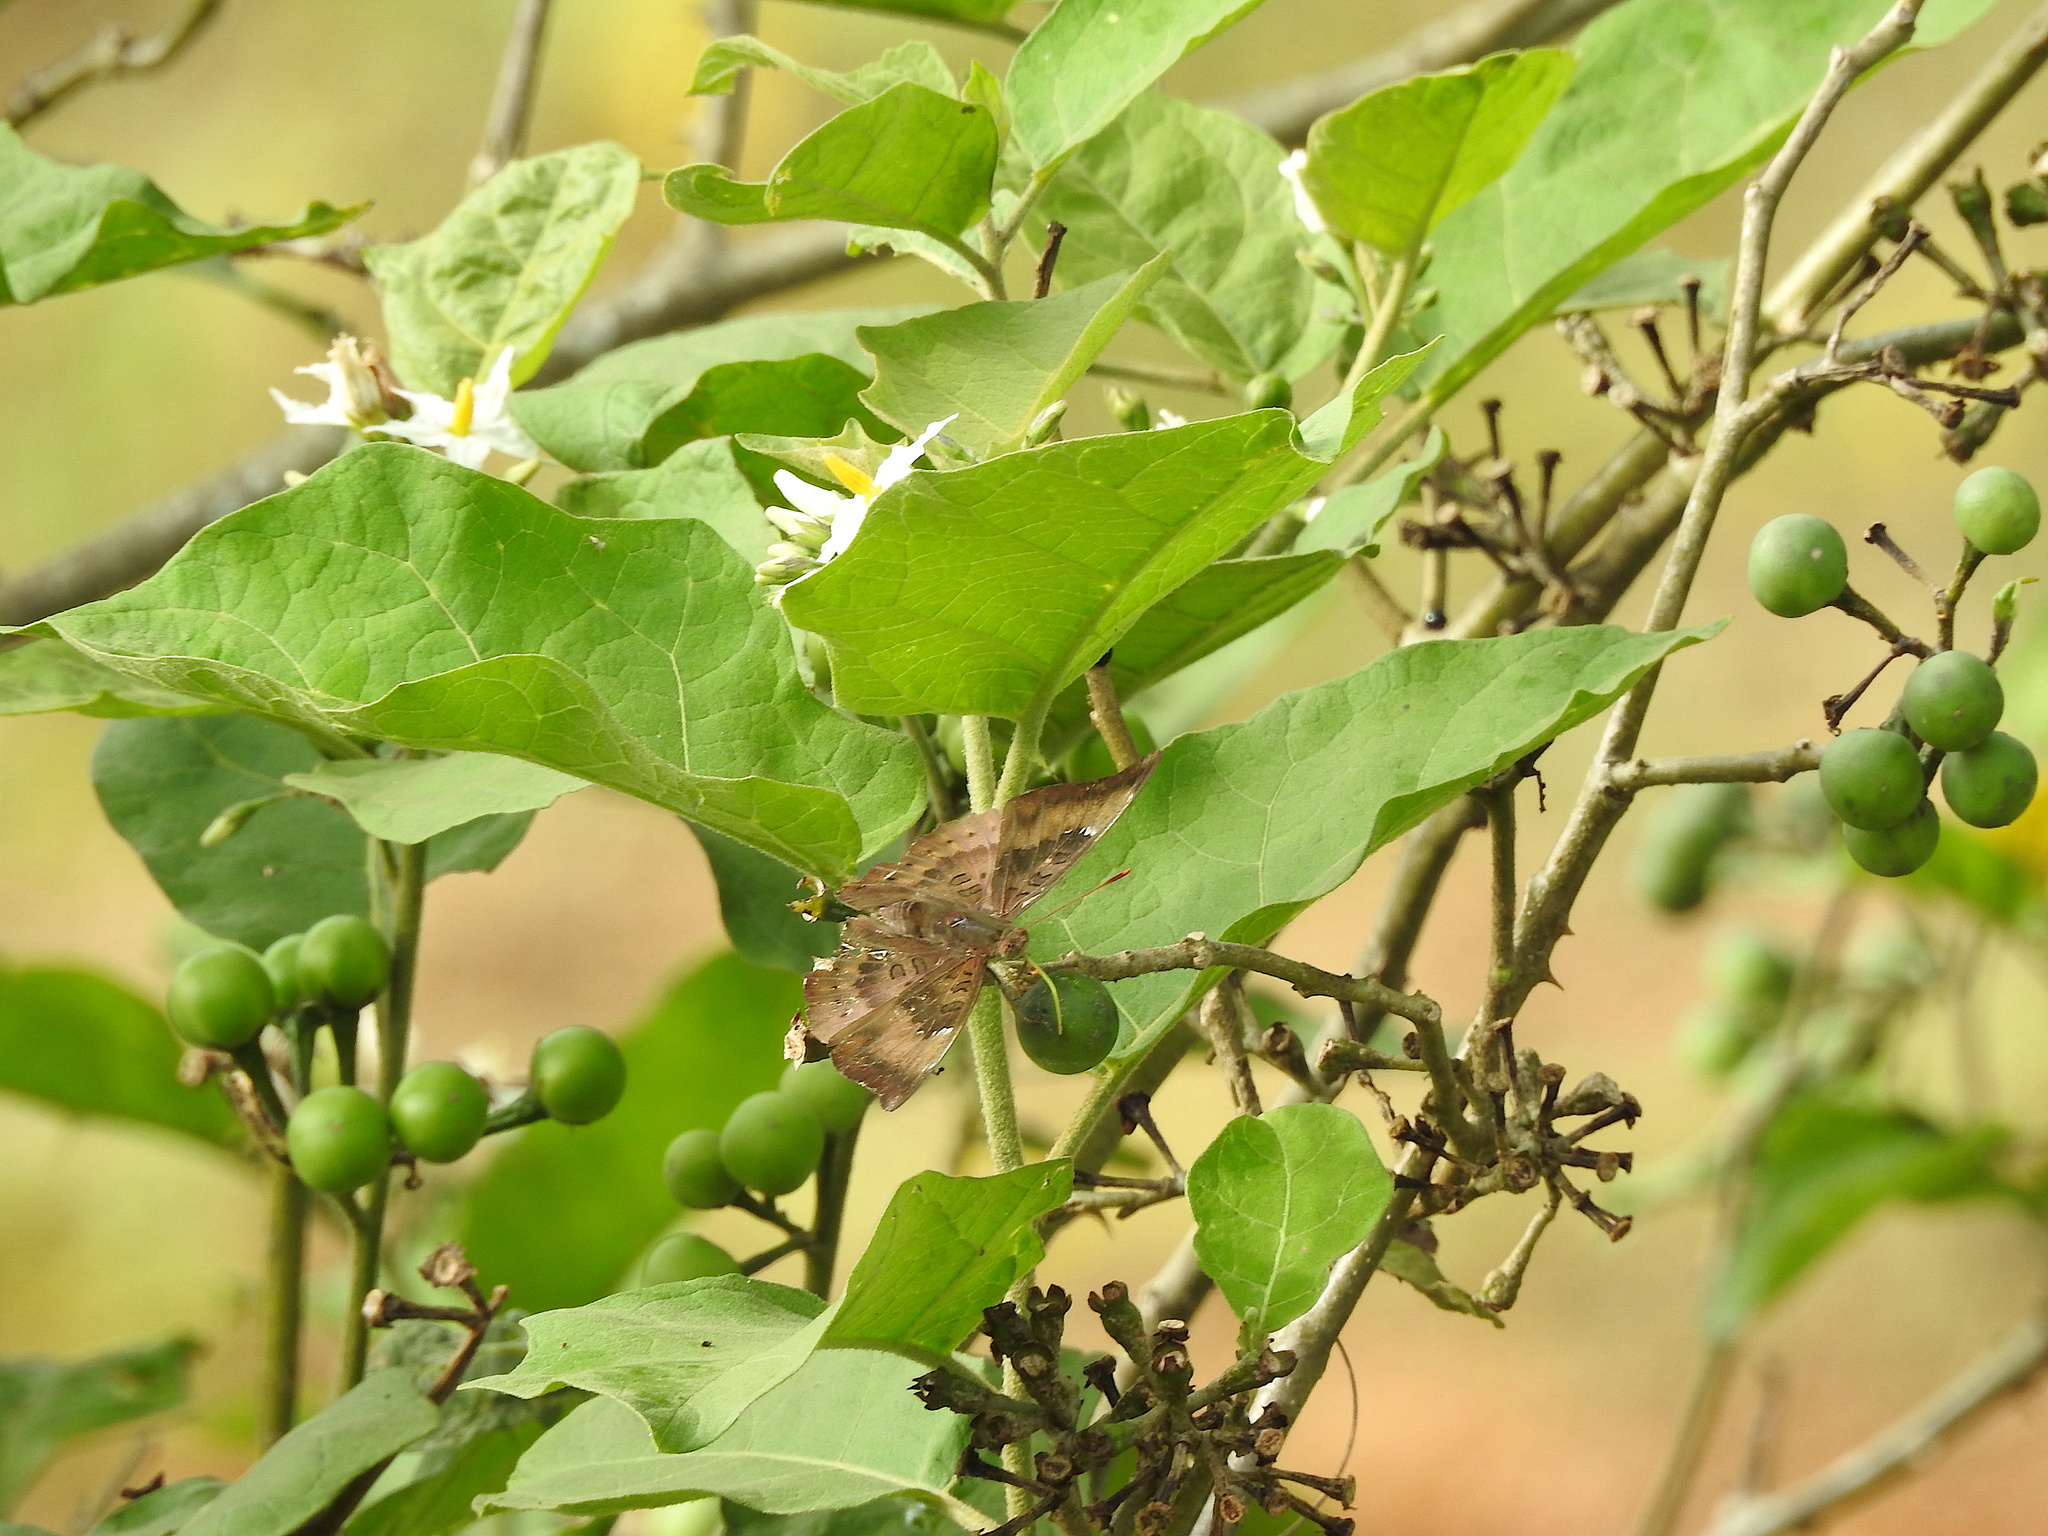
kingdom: Animalia
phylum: Arthropoda
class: Insecta
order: Lepidoptera
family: Nymphalidae
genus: Euthalia
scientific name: Euthalia aconthea
